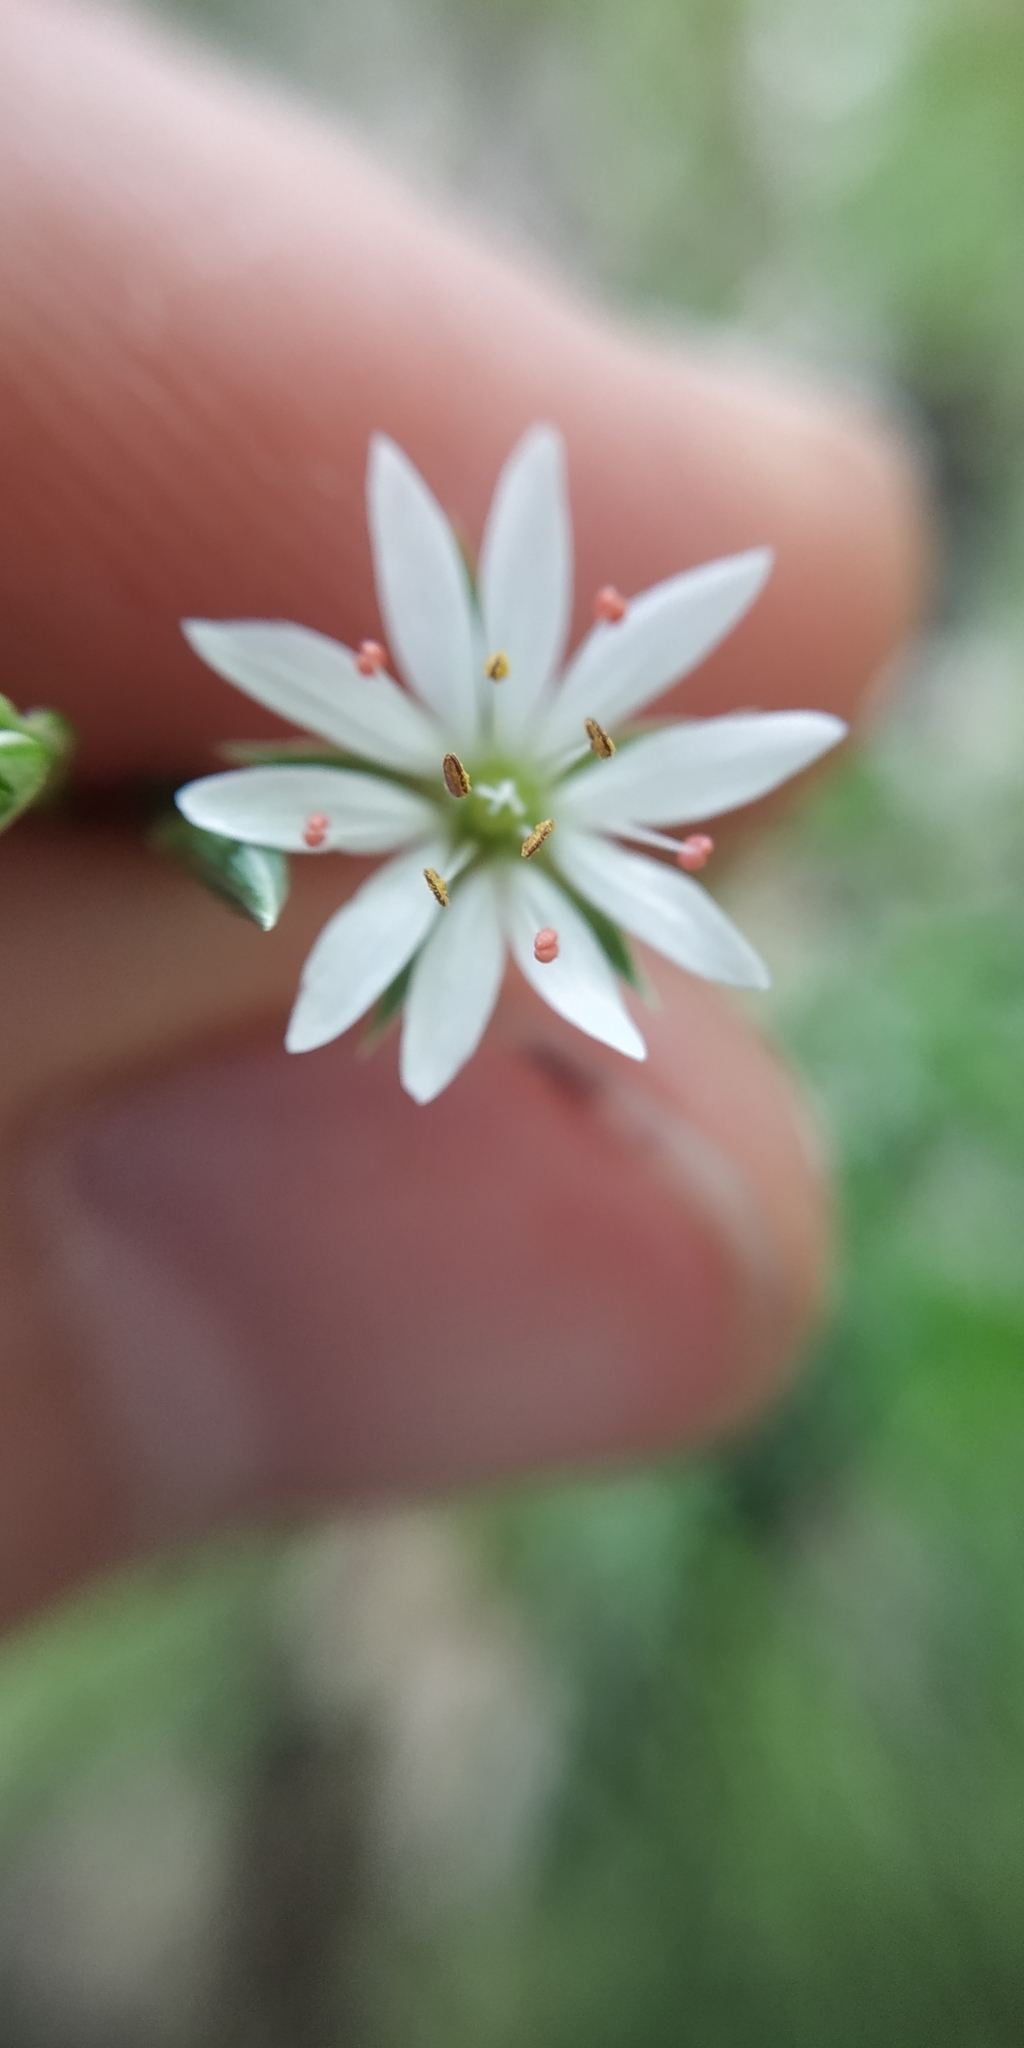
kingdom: Plantae
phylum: Tracheophyta
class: Magnoliopsida
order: Caryophyllales
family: Caryophyllaceae
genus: Stellaria
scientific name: Stellaria graminea
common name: Grass-like starwort
